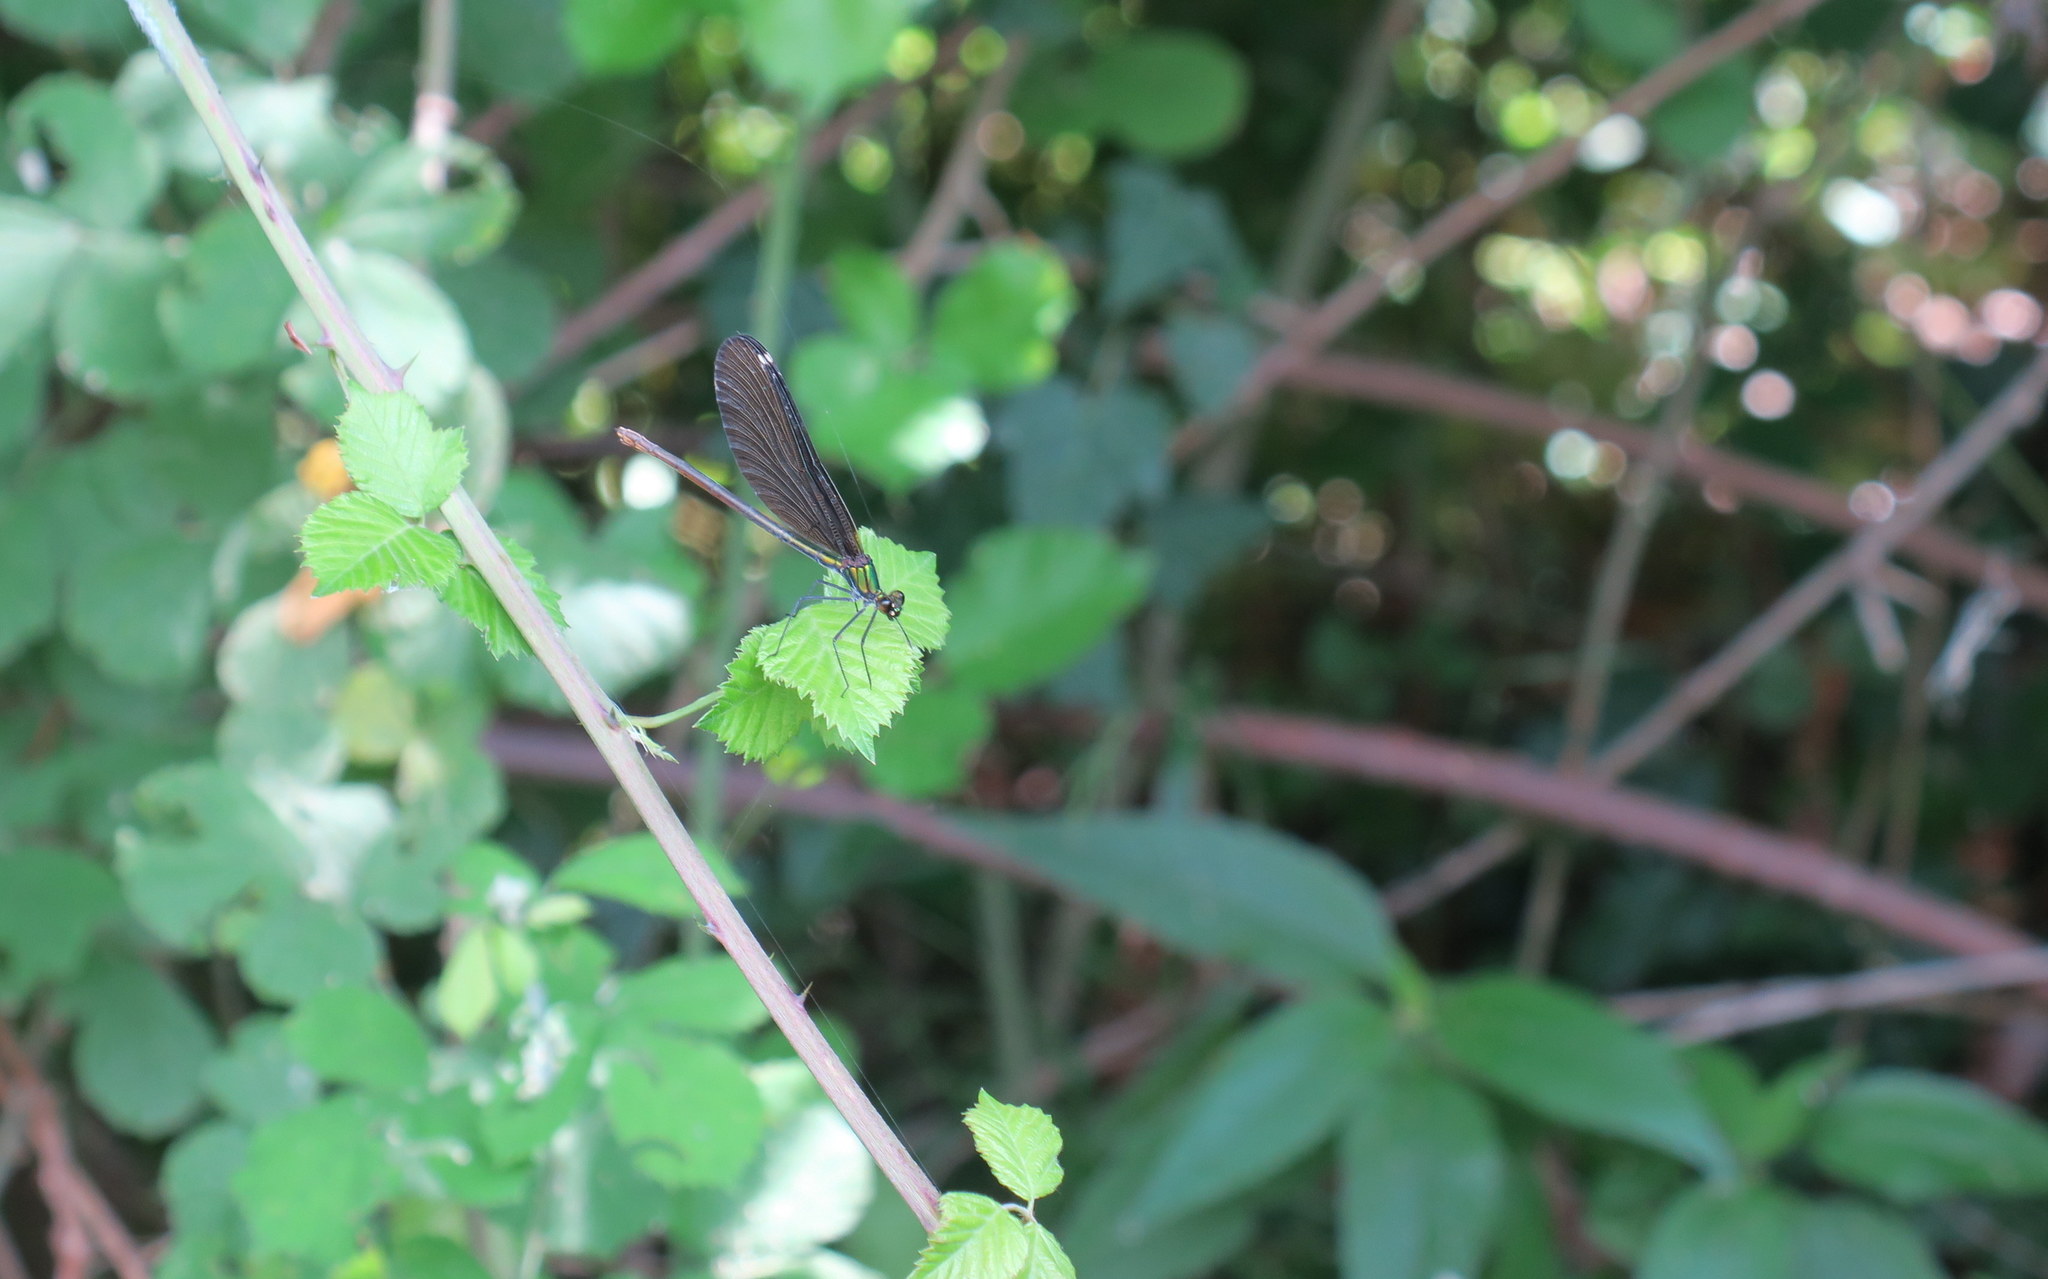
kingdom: Animalia
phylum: Arthropoda
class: Insecta
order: Odonata
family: Calopterygidae
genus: Calopteryx
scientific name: Calopteryx virgo
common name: Beautiful demoiselle
